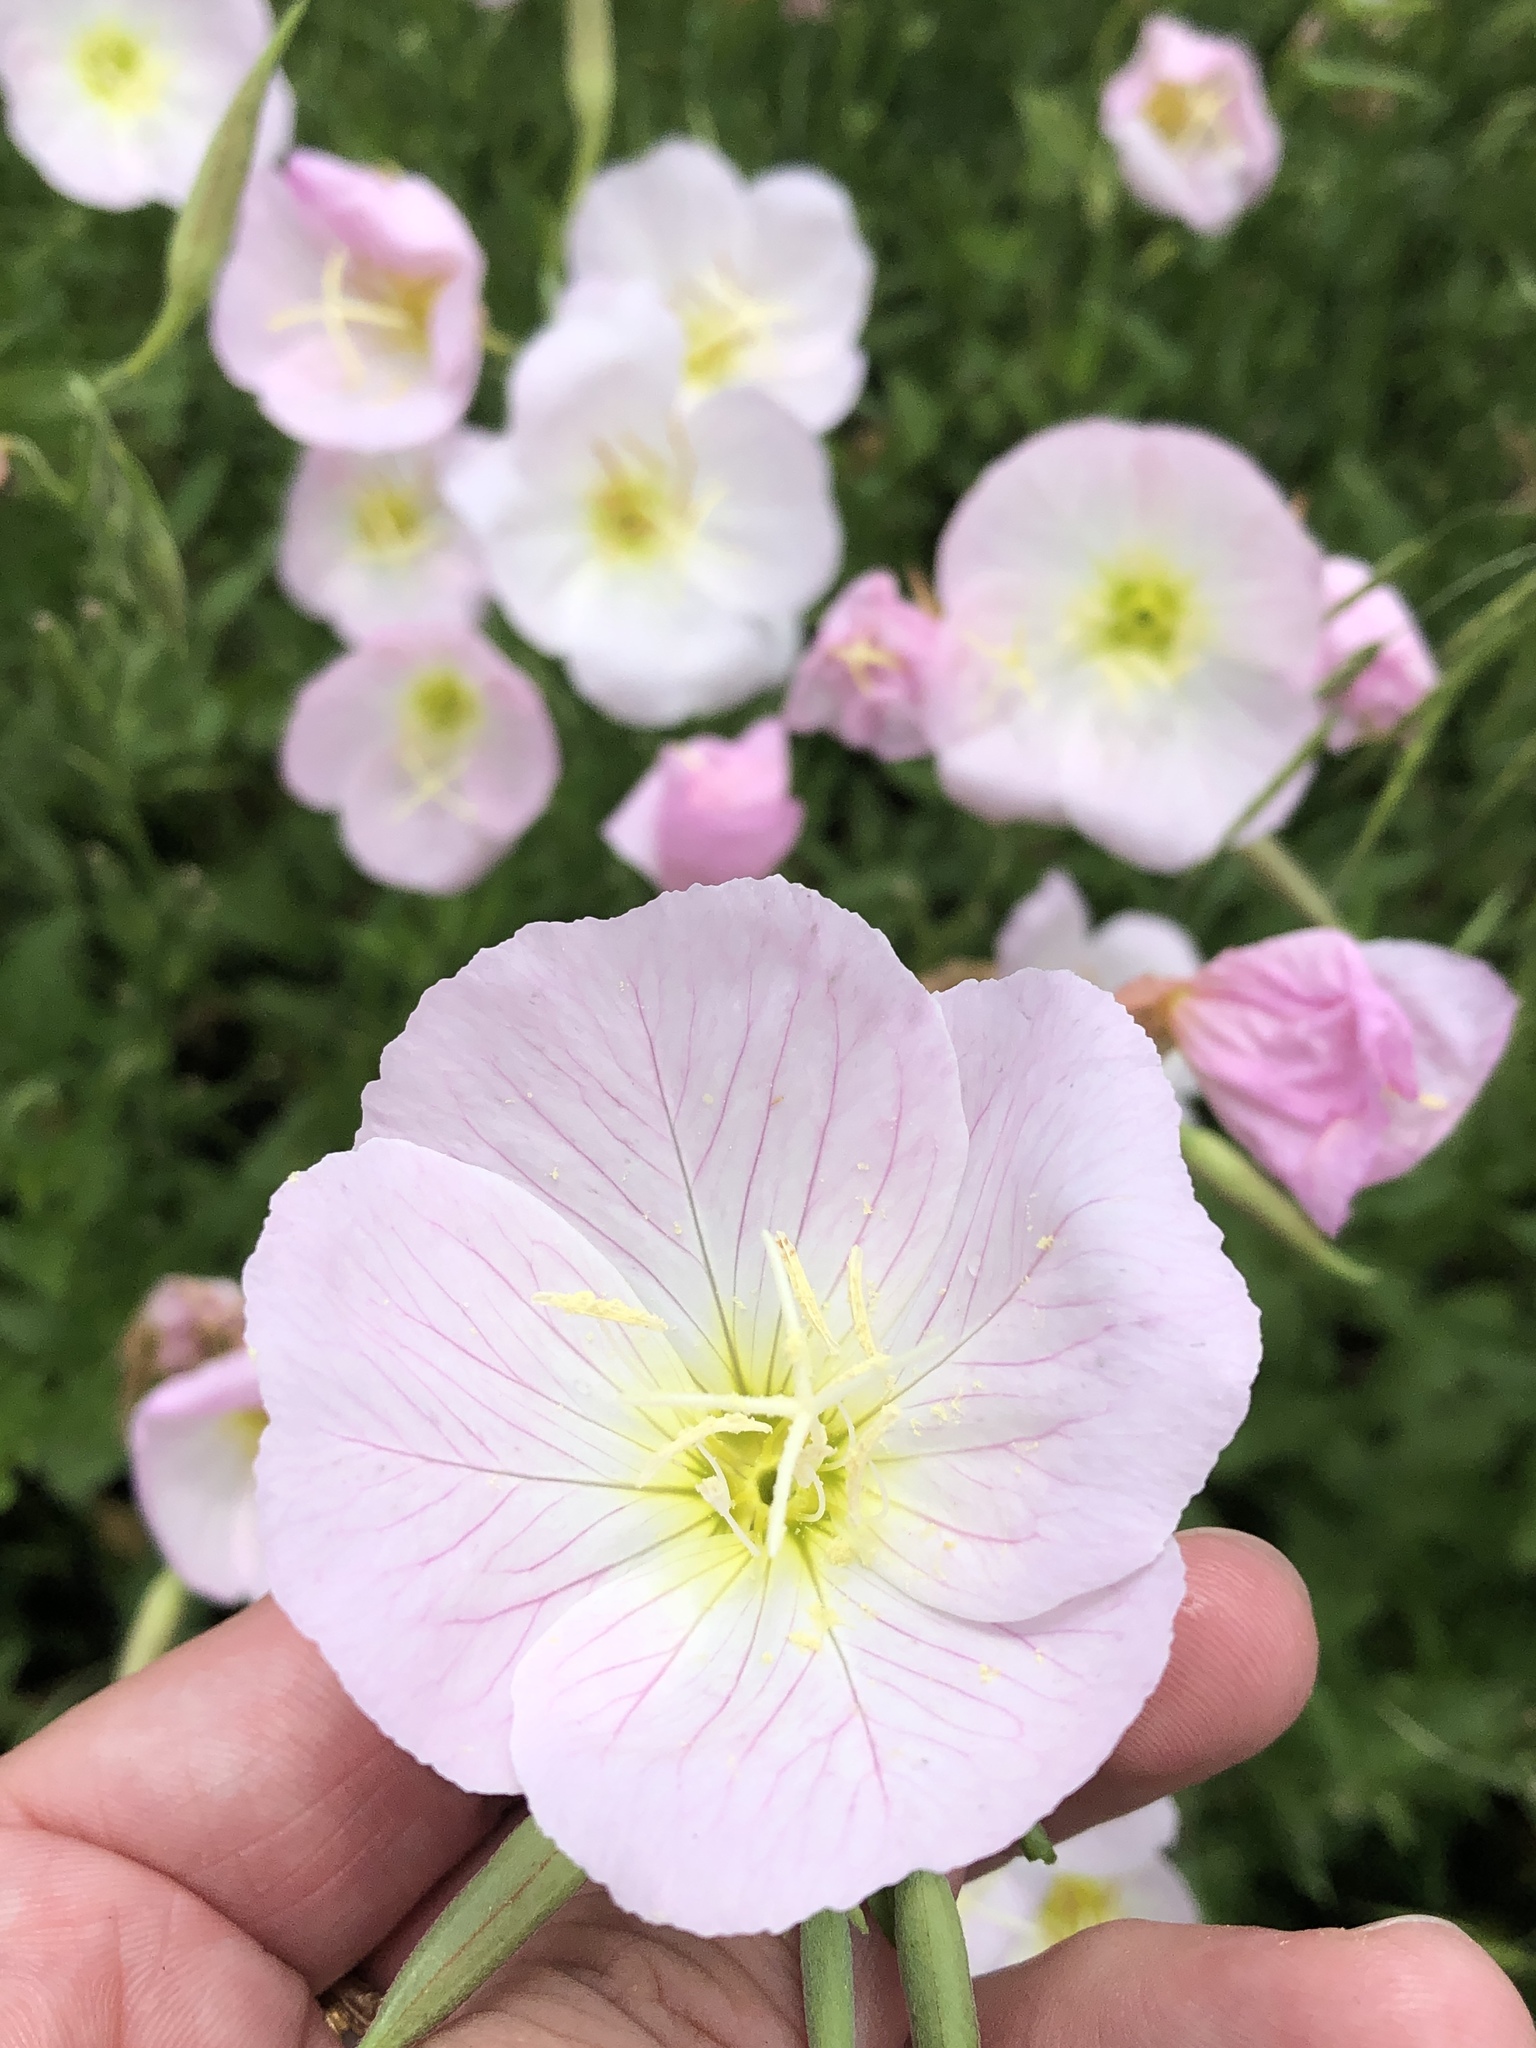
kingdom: Plantae
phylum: Tracheophyta
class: Magnoliopsida
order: Myrtales
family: Onagraceae
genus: Oenothera
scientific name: Oenothera speciosa
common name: White evening-primrose
